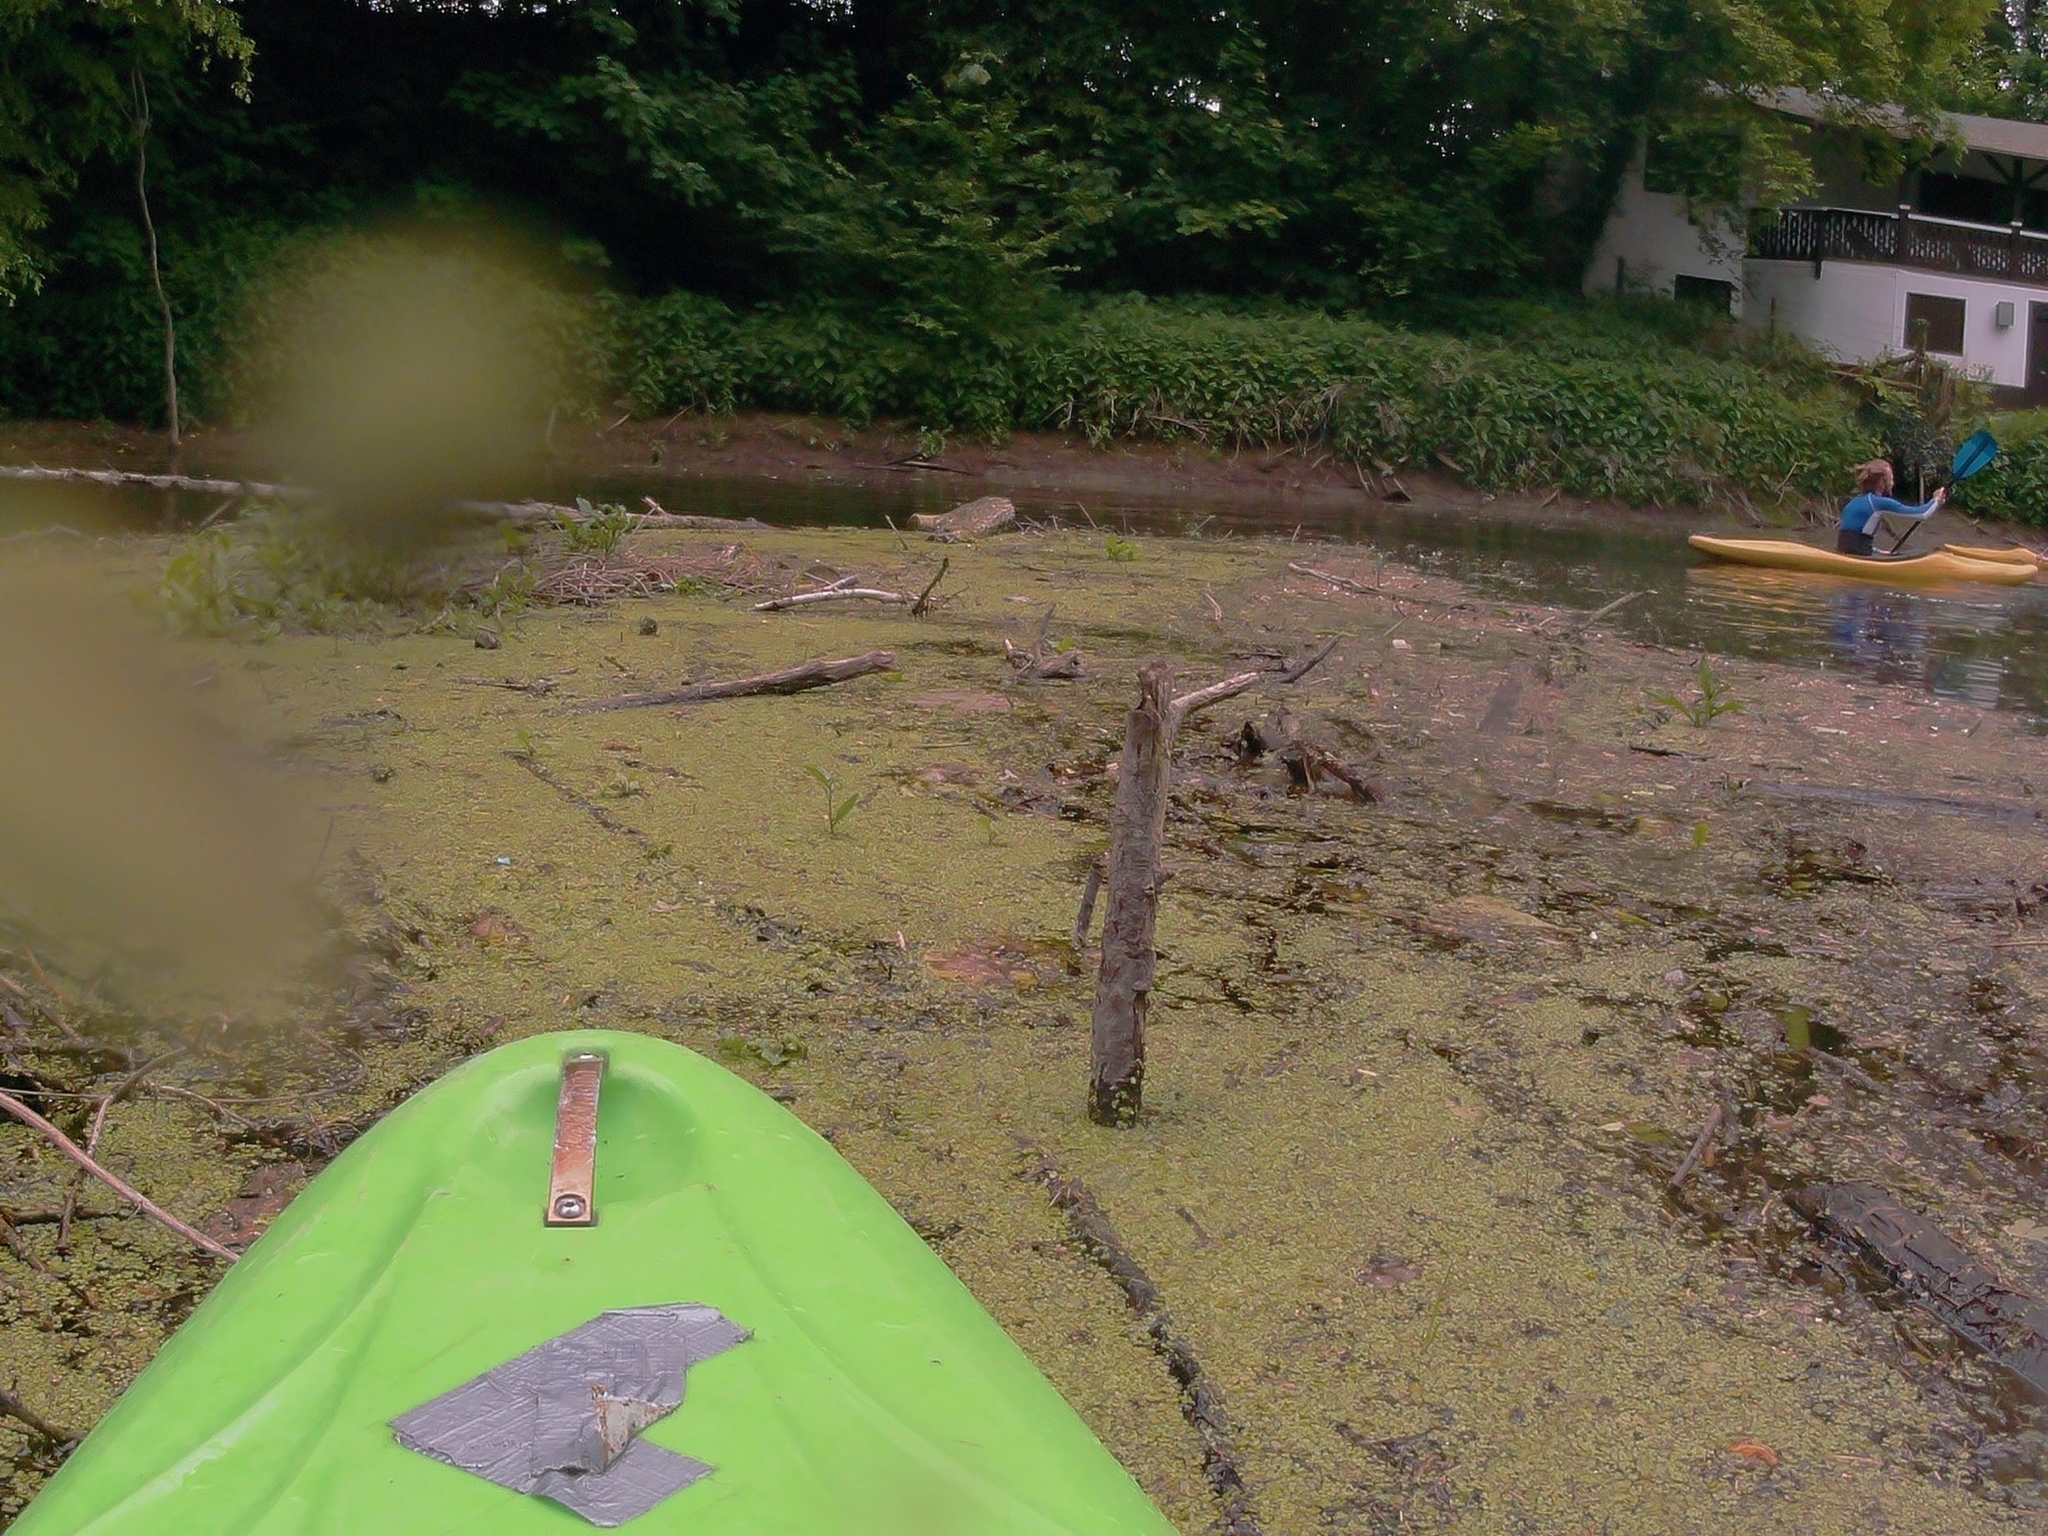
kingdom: Plantae
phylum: Tracheophyta
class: Liliopsida
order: Alismatales
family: Araceae
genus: Spirodela
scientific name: Spirodela polyrhiza
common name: Great duckweed
